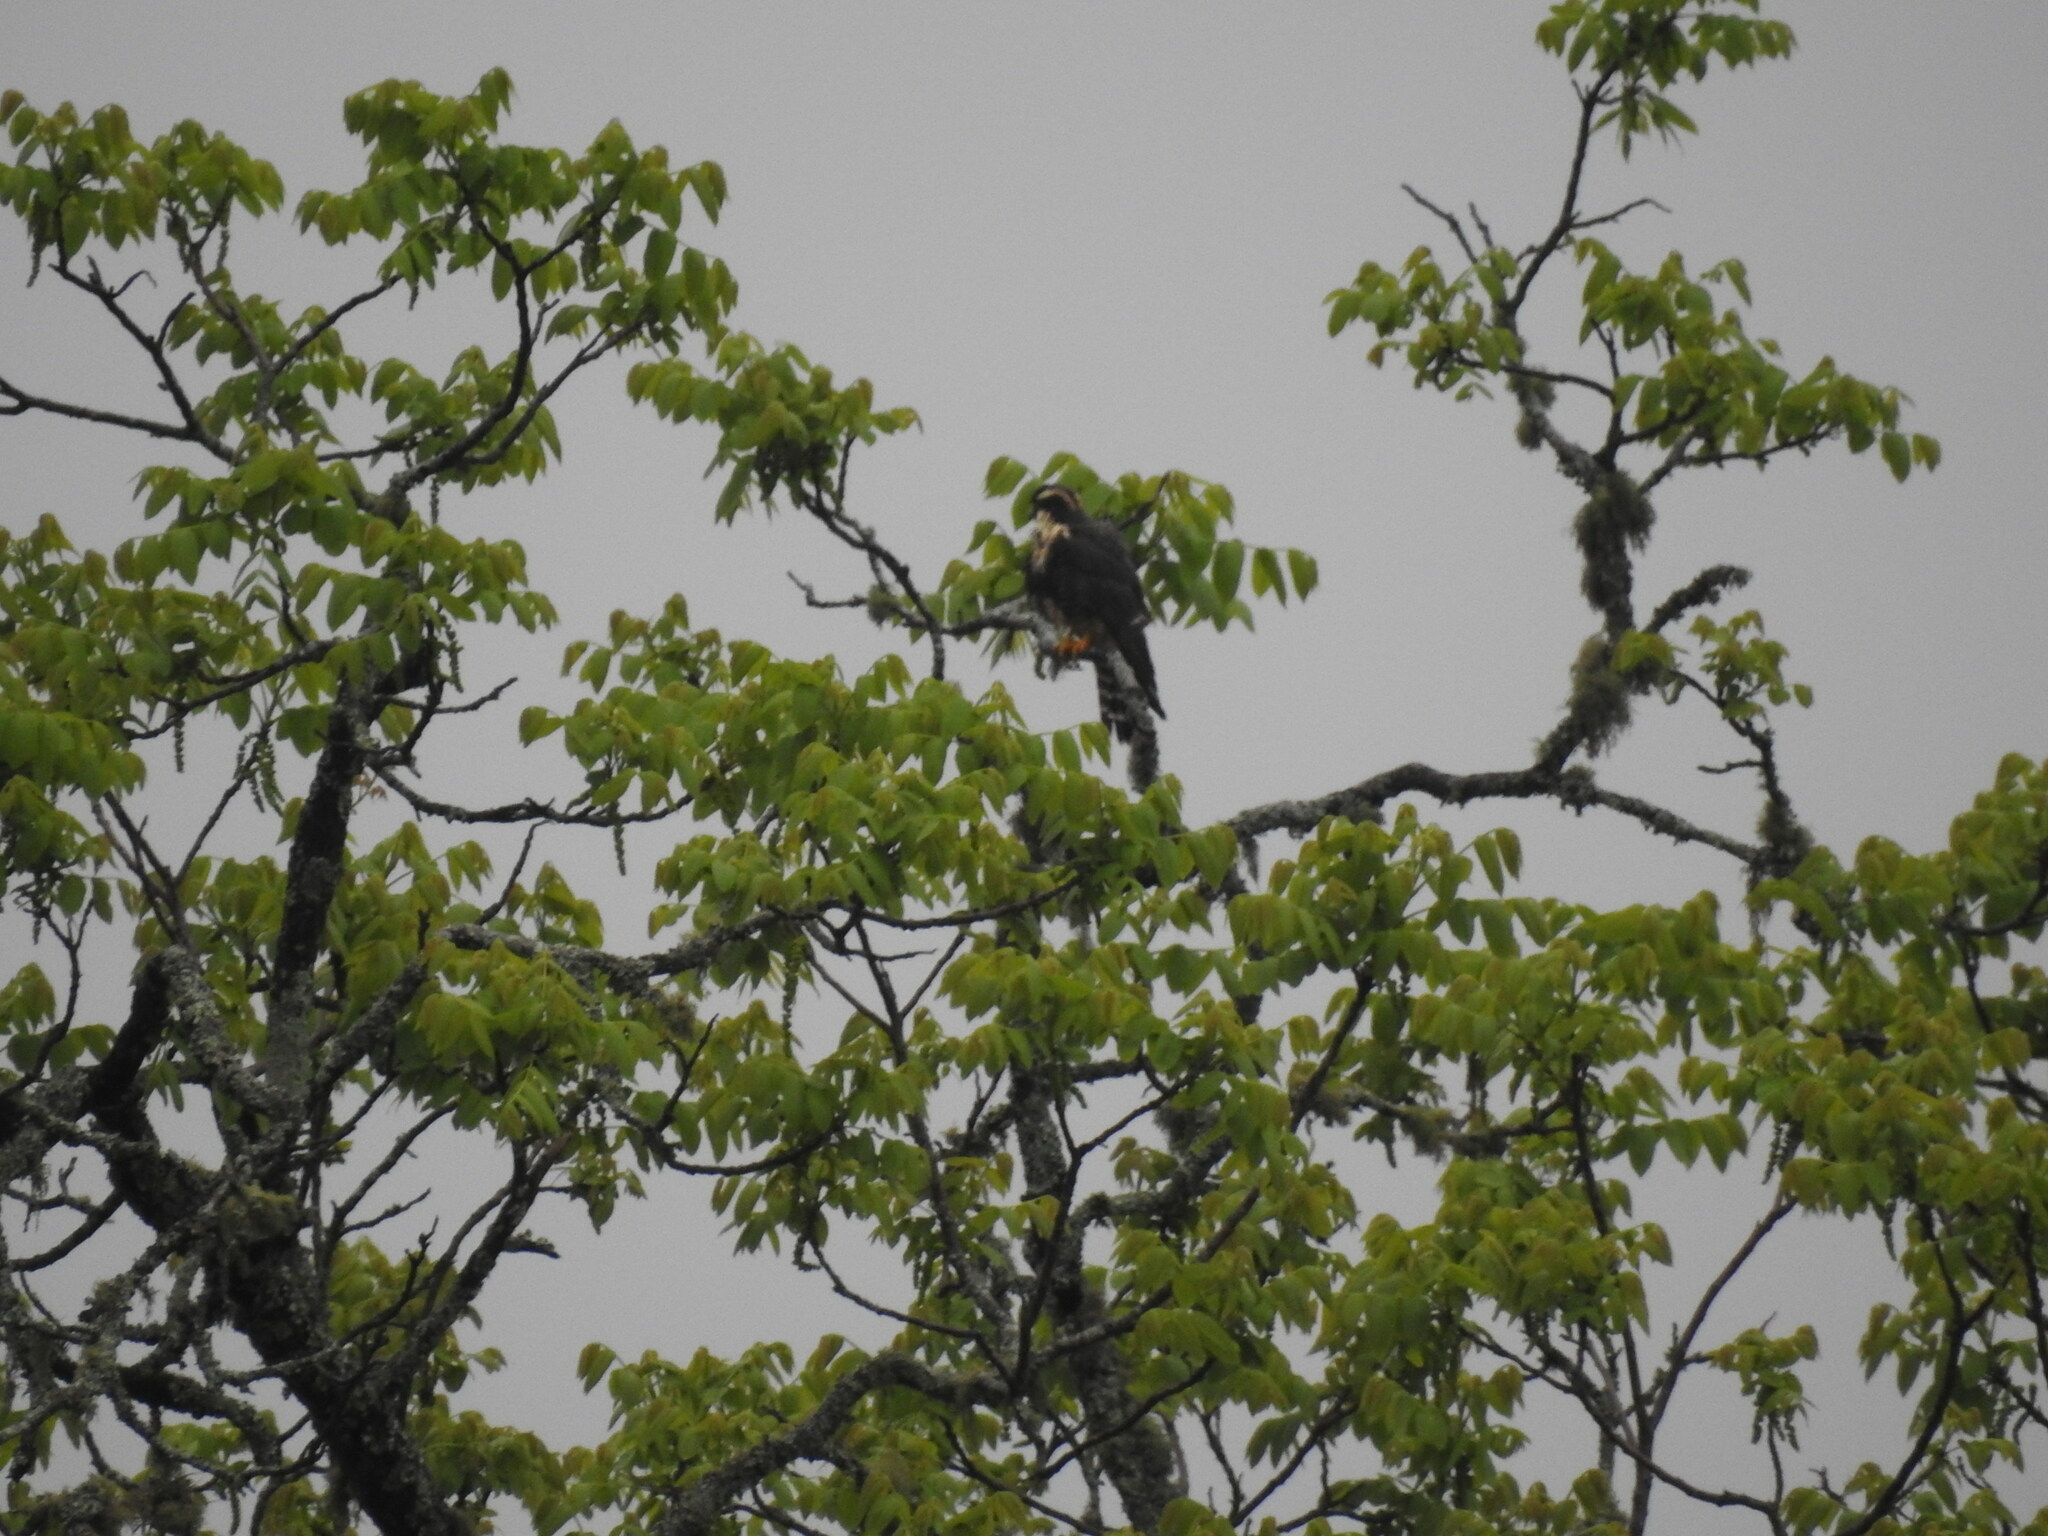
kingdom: Animalia
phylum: Chordata
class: Aves
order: Falconiformes
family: Falconidae
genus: Falco
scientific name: Falco femoralis
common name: Aplomado falcon
